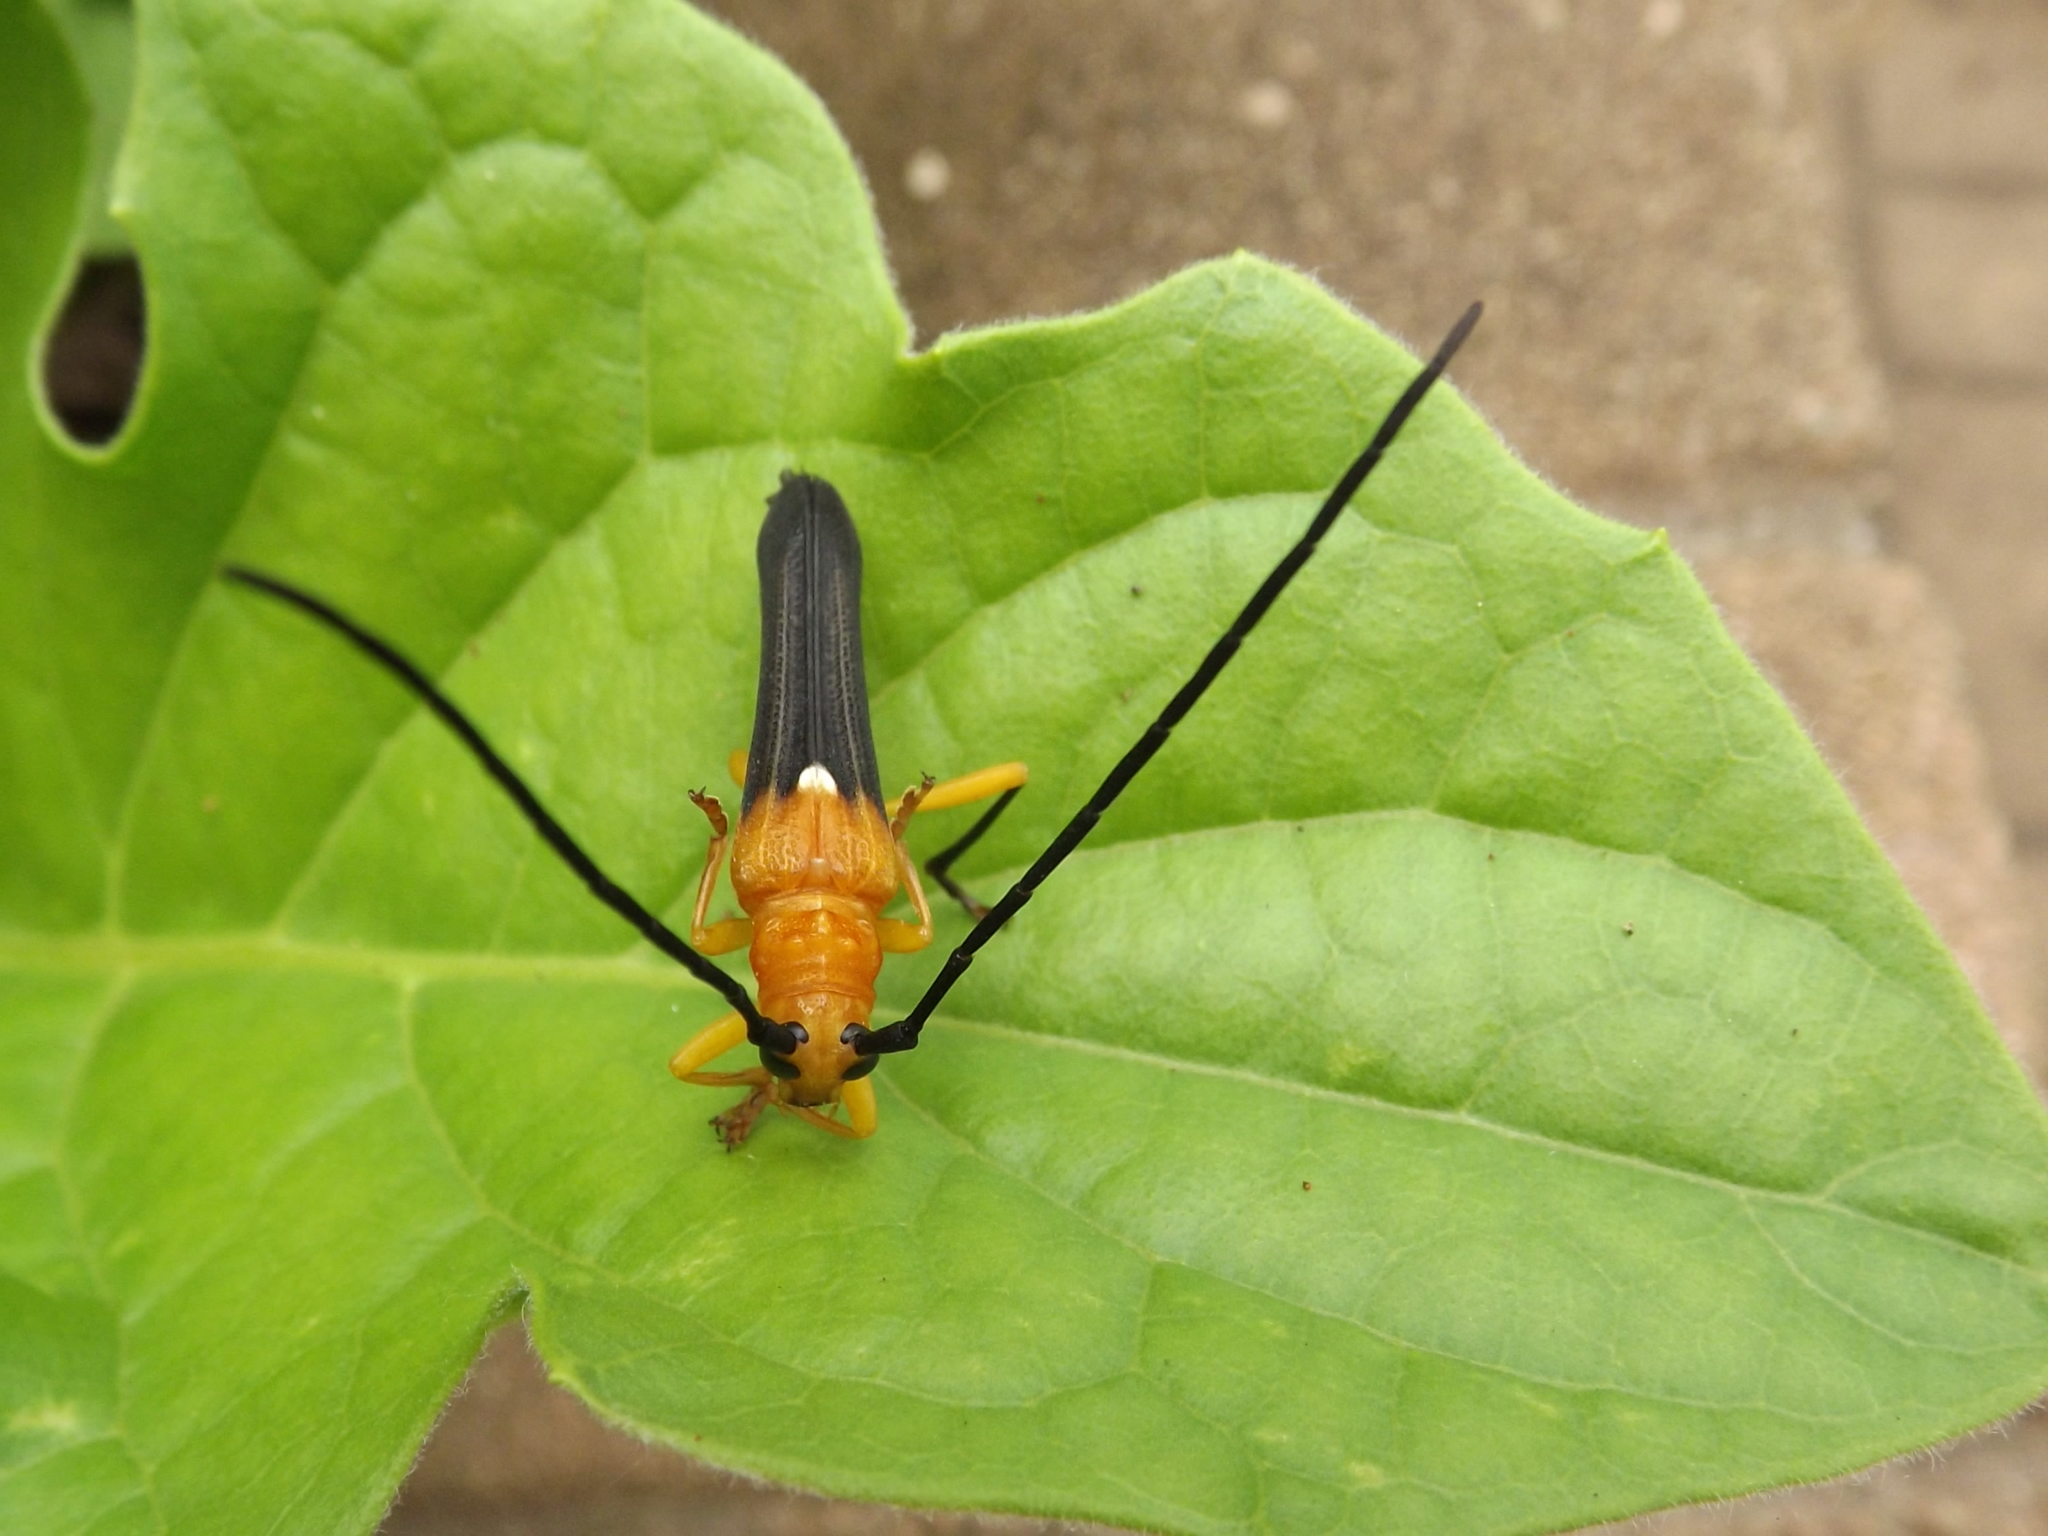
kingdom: Animalia
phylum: Arthropoda
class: Insecta
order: Coleoptera
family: Cerambycidae
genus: Leuconitocris
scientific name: Leuconitocris
